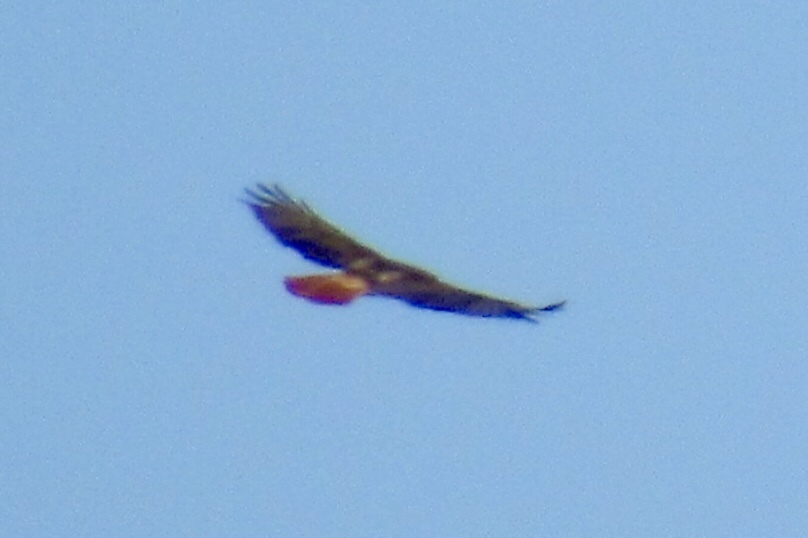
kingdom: Animalia
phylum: Chordata
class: Aves
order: Accipitriformes
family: Accipitridae
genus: Buteo
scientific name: Buteo jamaicensis
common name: Red-tailed hawk
